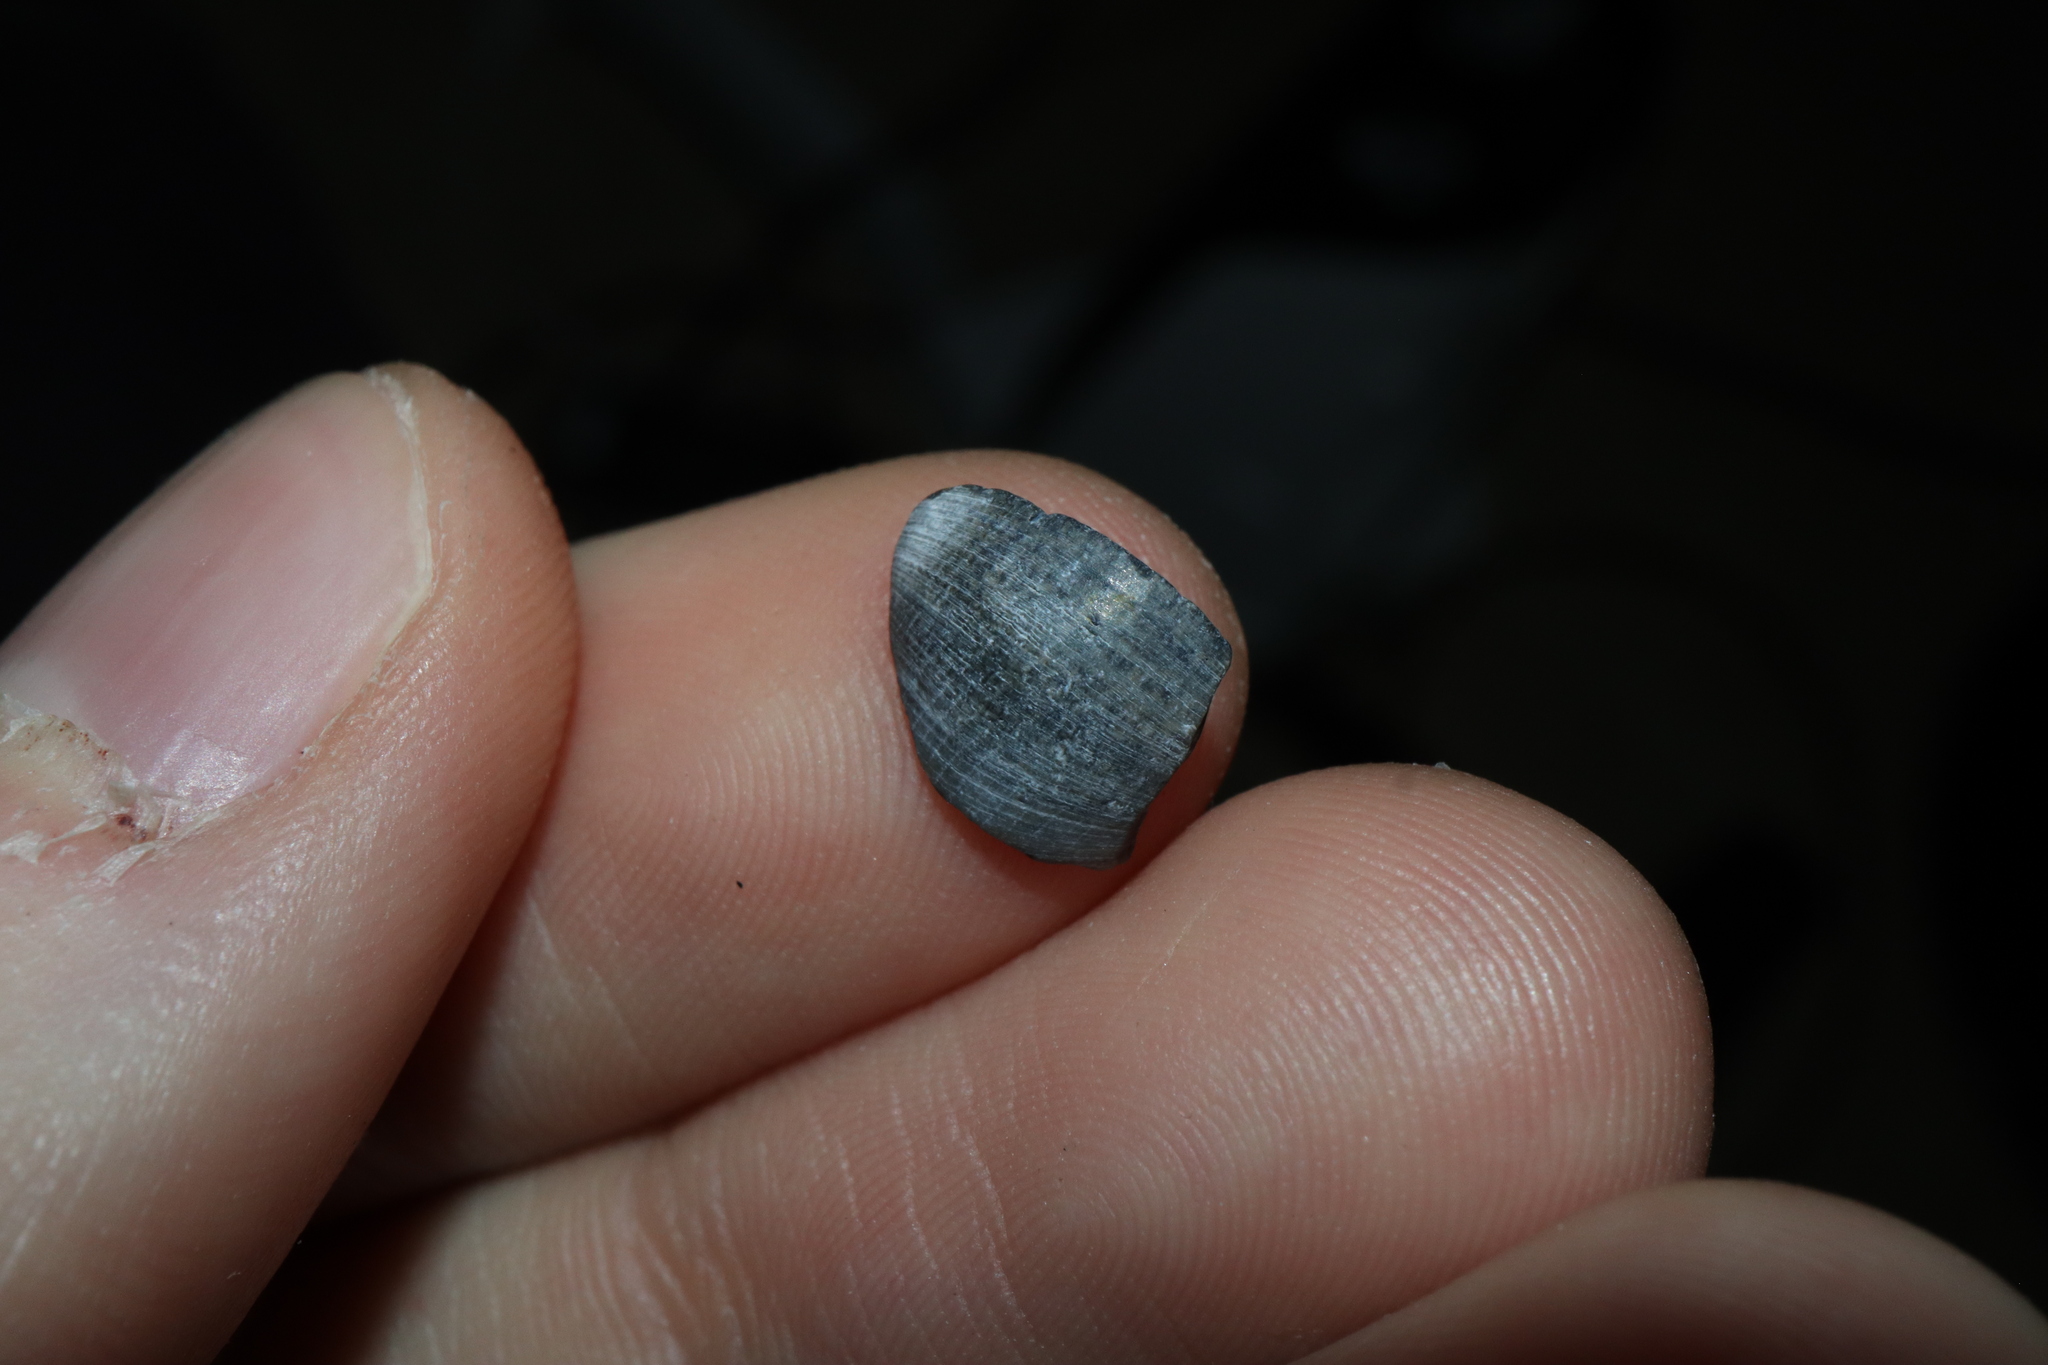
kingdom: Animalia
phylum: Mollusca
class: Gastropoda
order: Cycloneritida
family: Neritidae
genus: Nerita
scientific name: Nerita atramentosa
